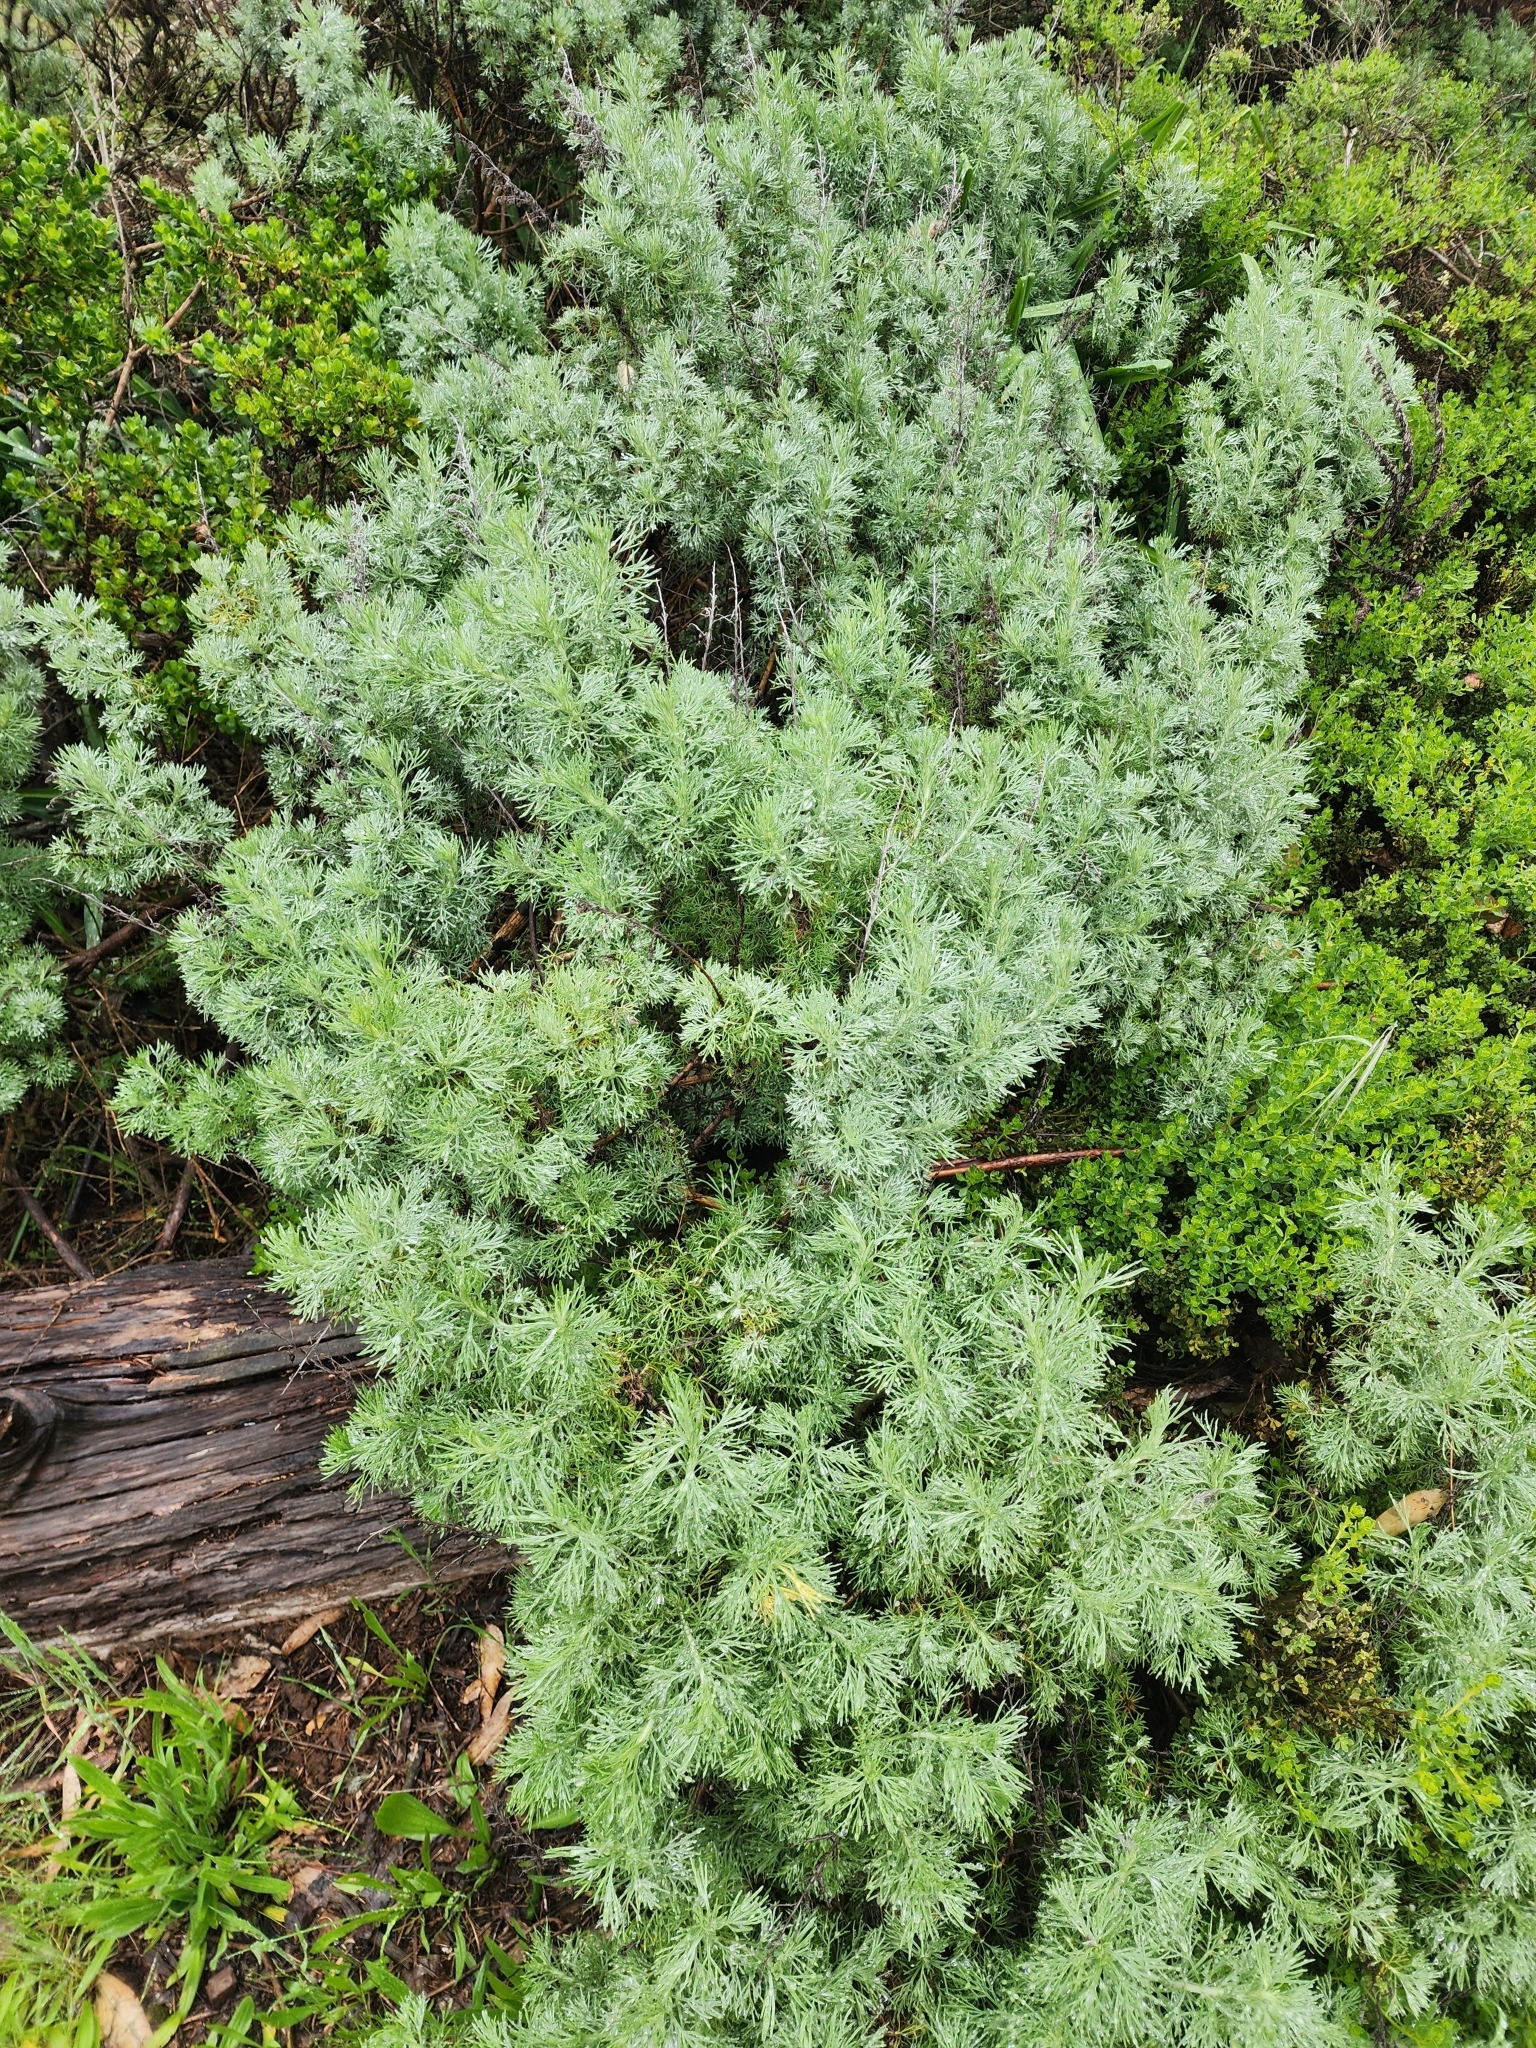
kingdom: Plantae
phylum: Tracheophyta
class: Magnoliopsida
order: Asterales
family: Asteraceae
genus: Artemisia
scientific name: Artemisia californica
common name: California sagebrush
